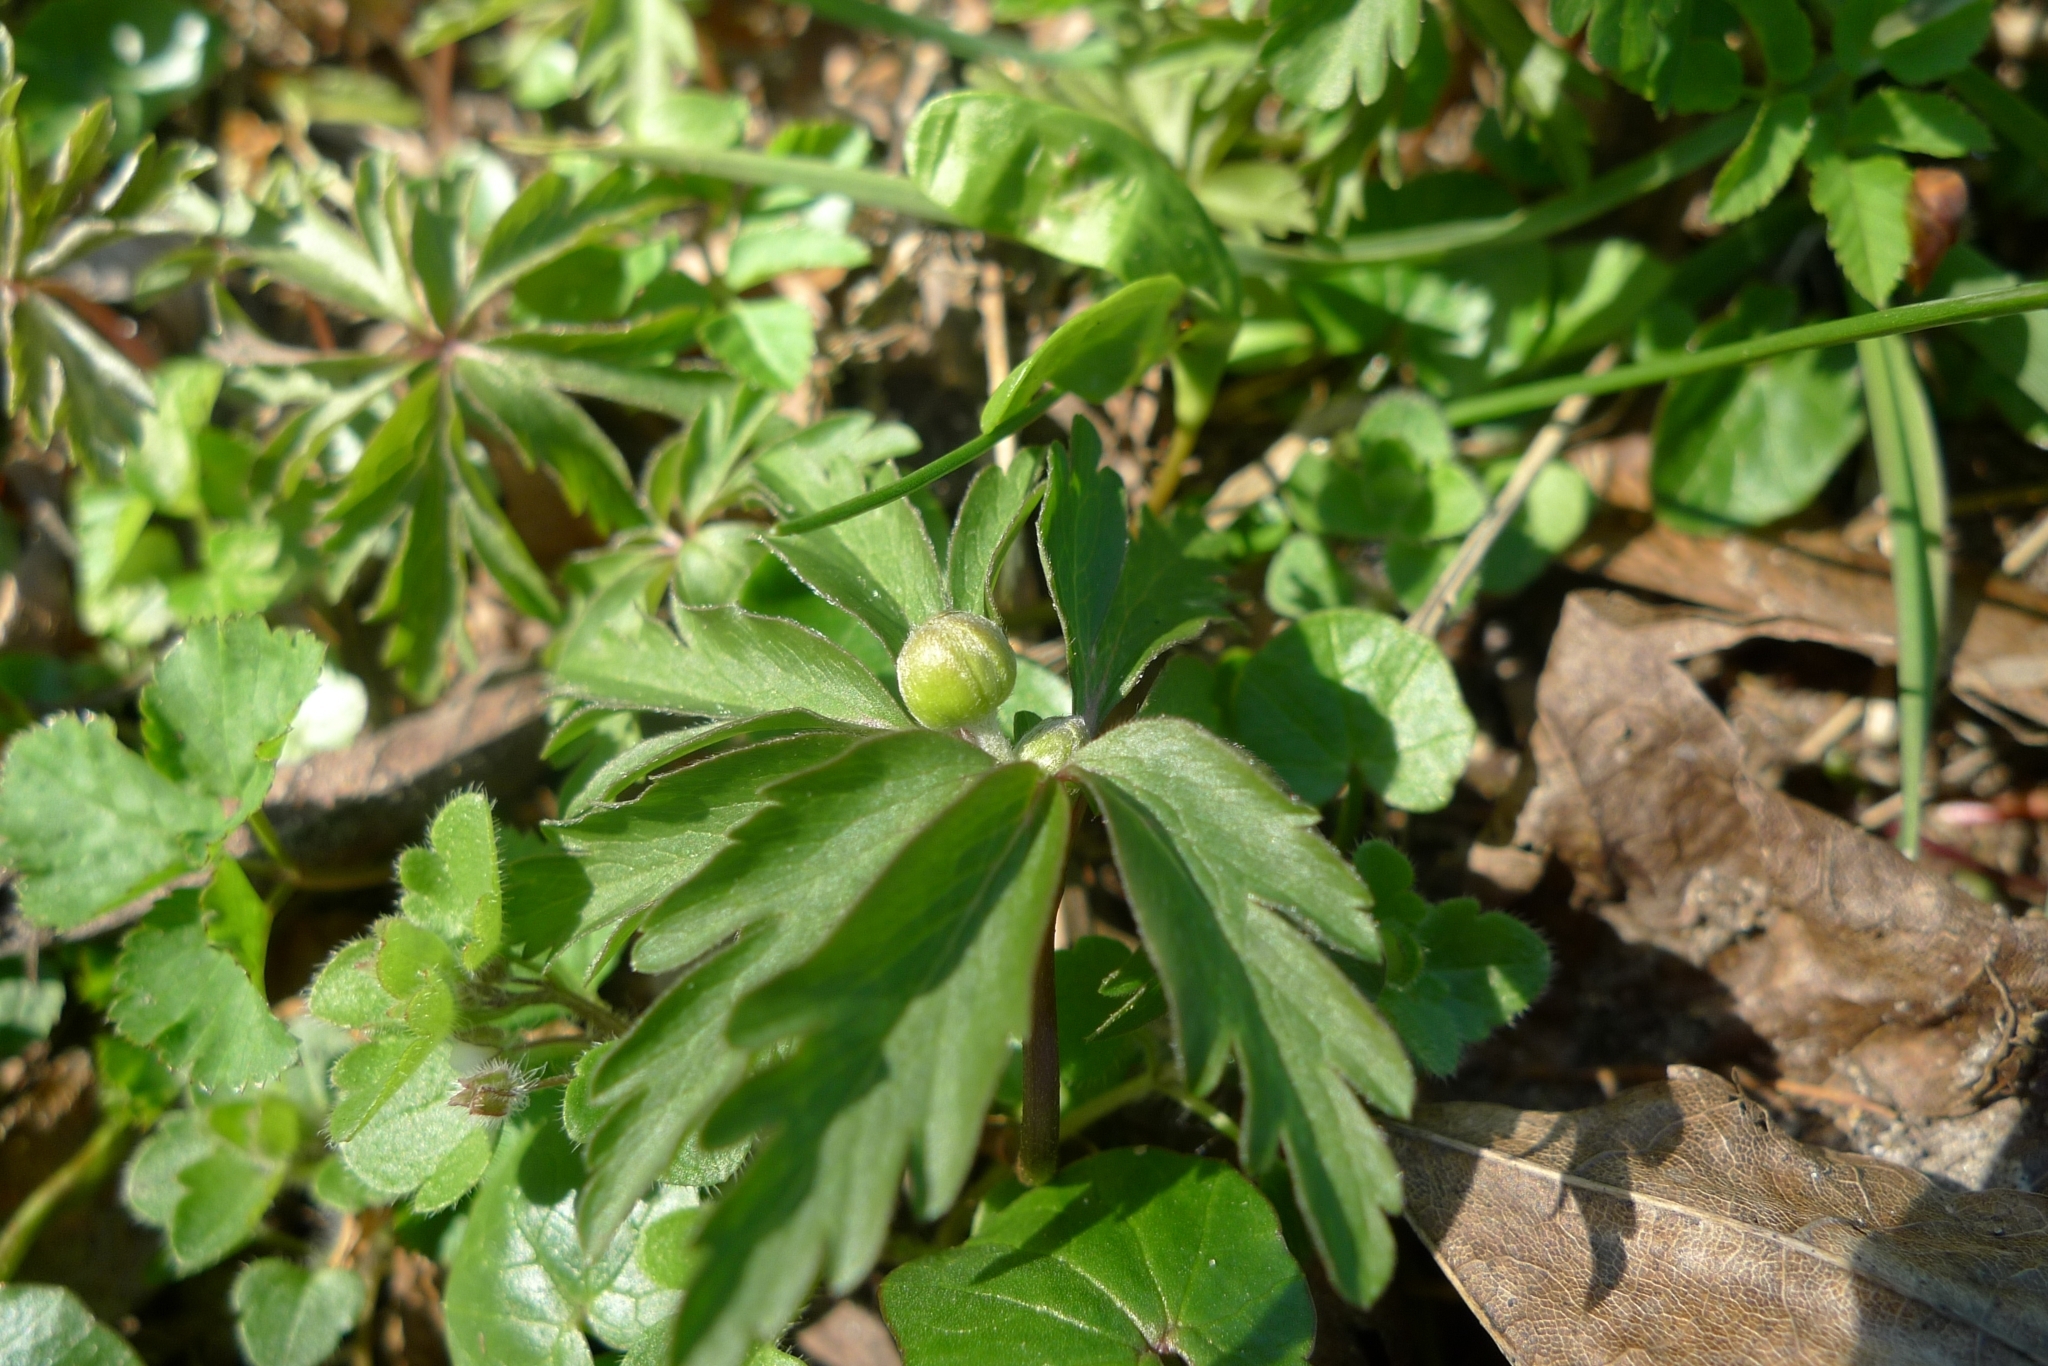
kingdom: Plantae
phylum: Tracheophyta
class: Magnoliopsida
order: Ranunculales
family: Ranunculaceae
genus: Anemone
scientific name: Anemone ranunculoides
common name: Yellow anemone
